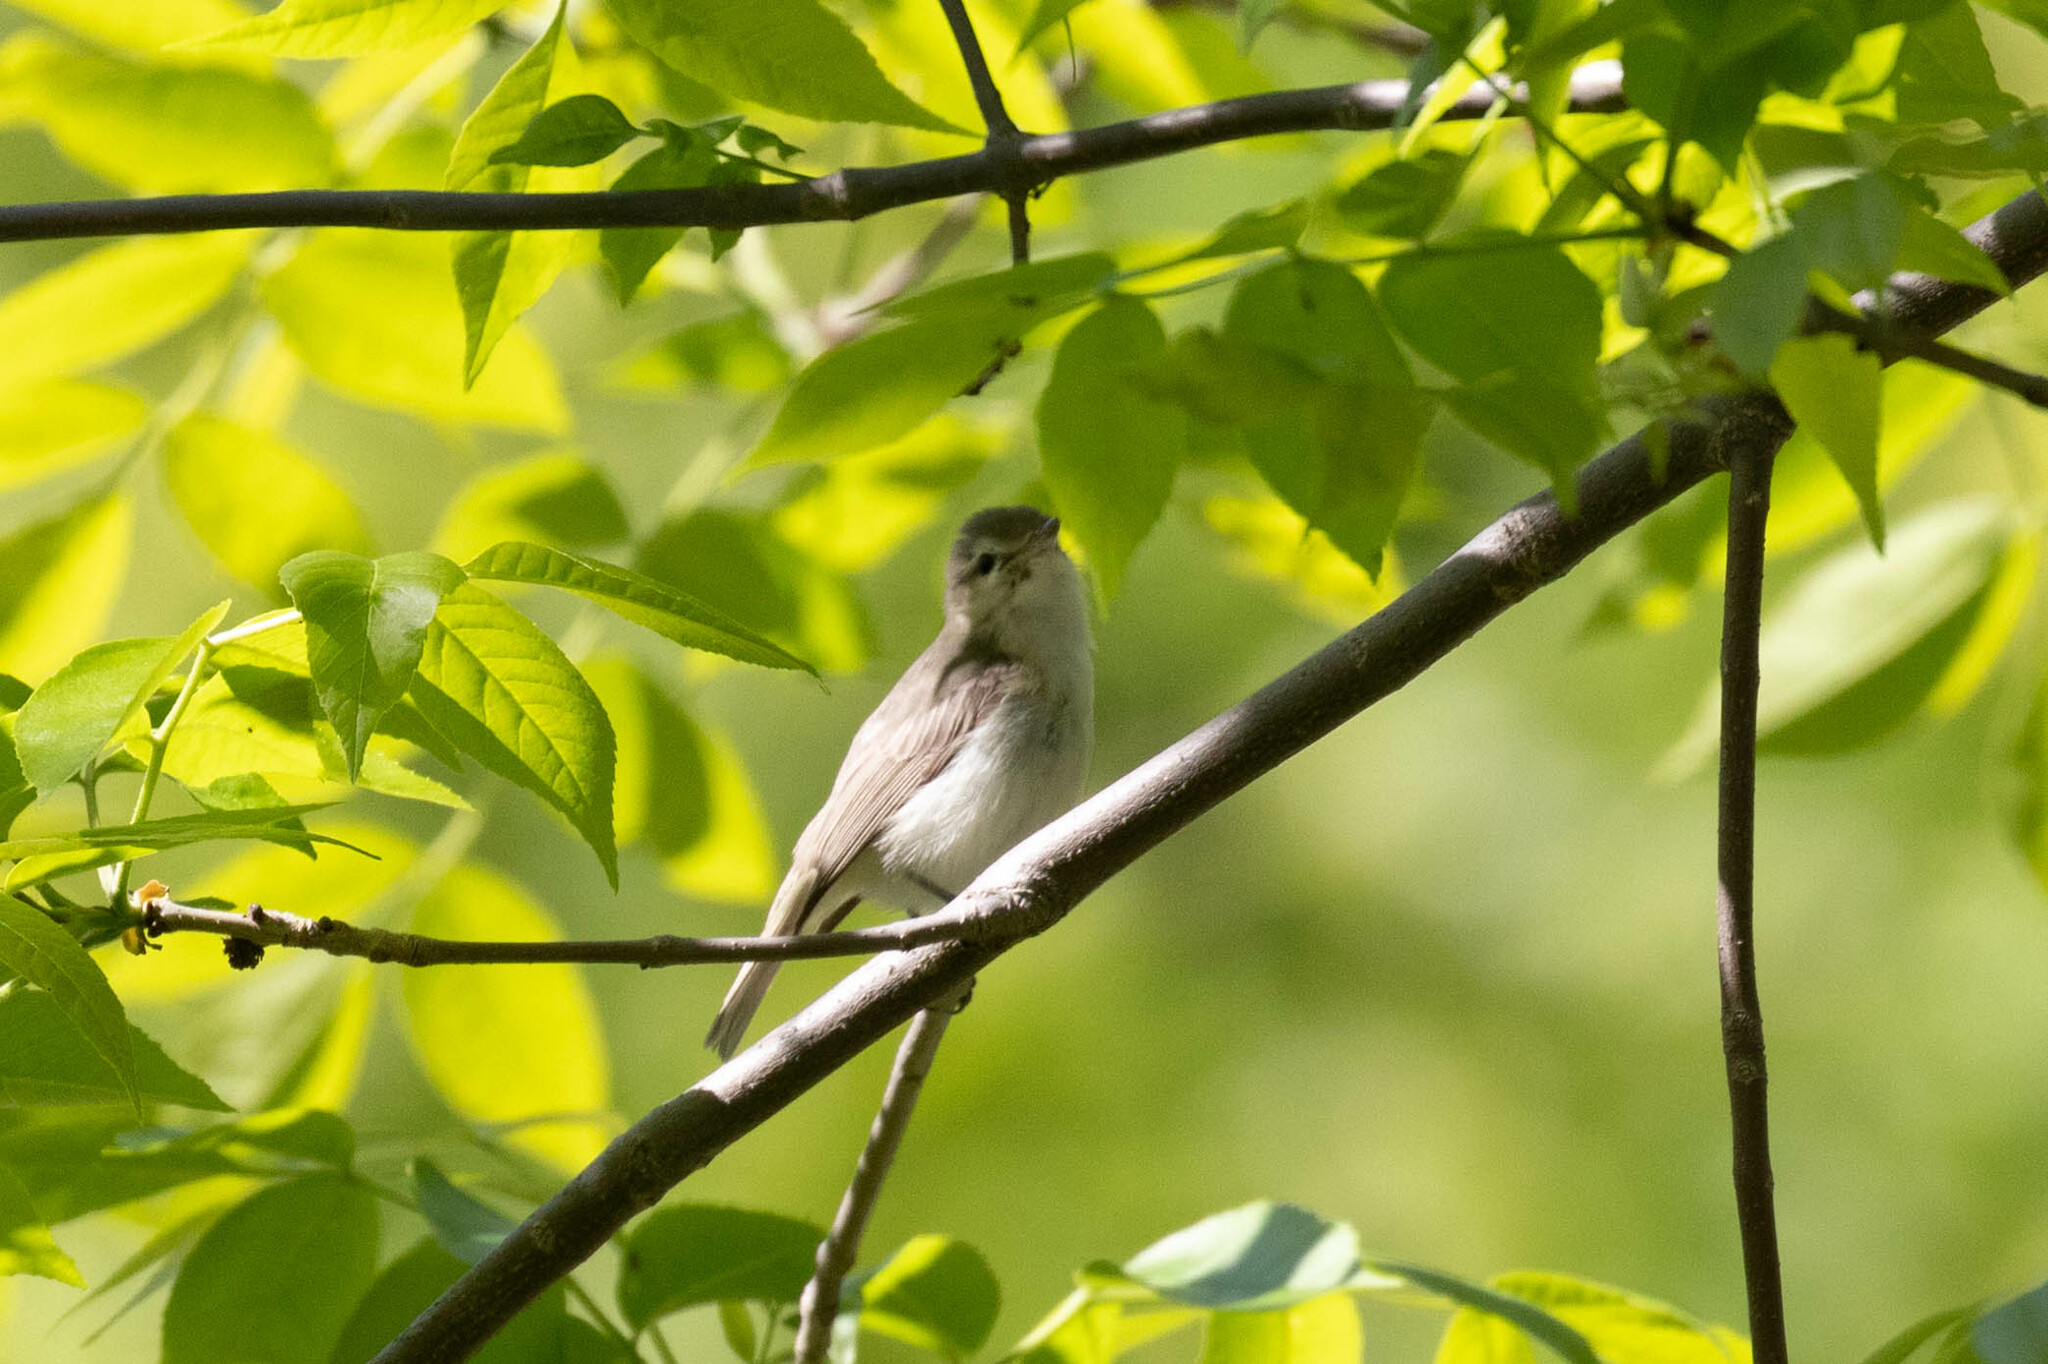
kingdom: Animalia
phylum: Chordata
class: Aves
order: Passeriformes
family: Vireonidae
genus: Vireo
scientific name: Vireo gilvus
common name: Warbling vireo
